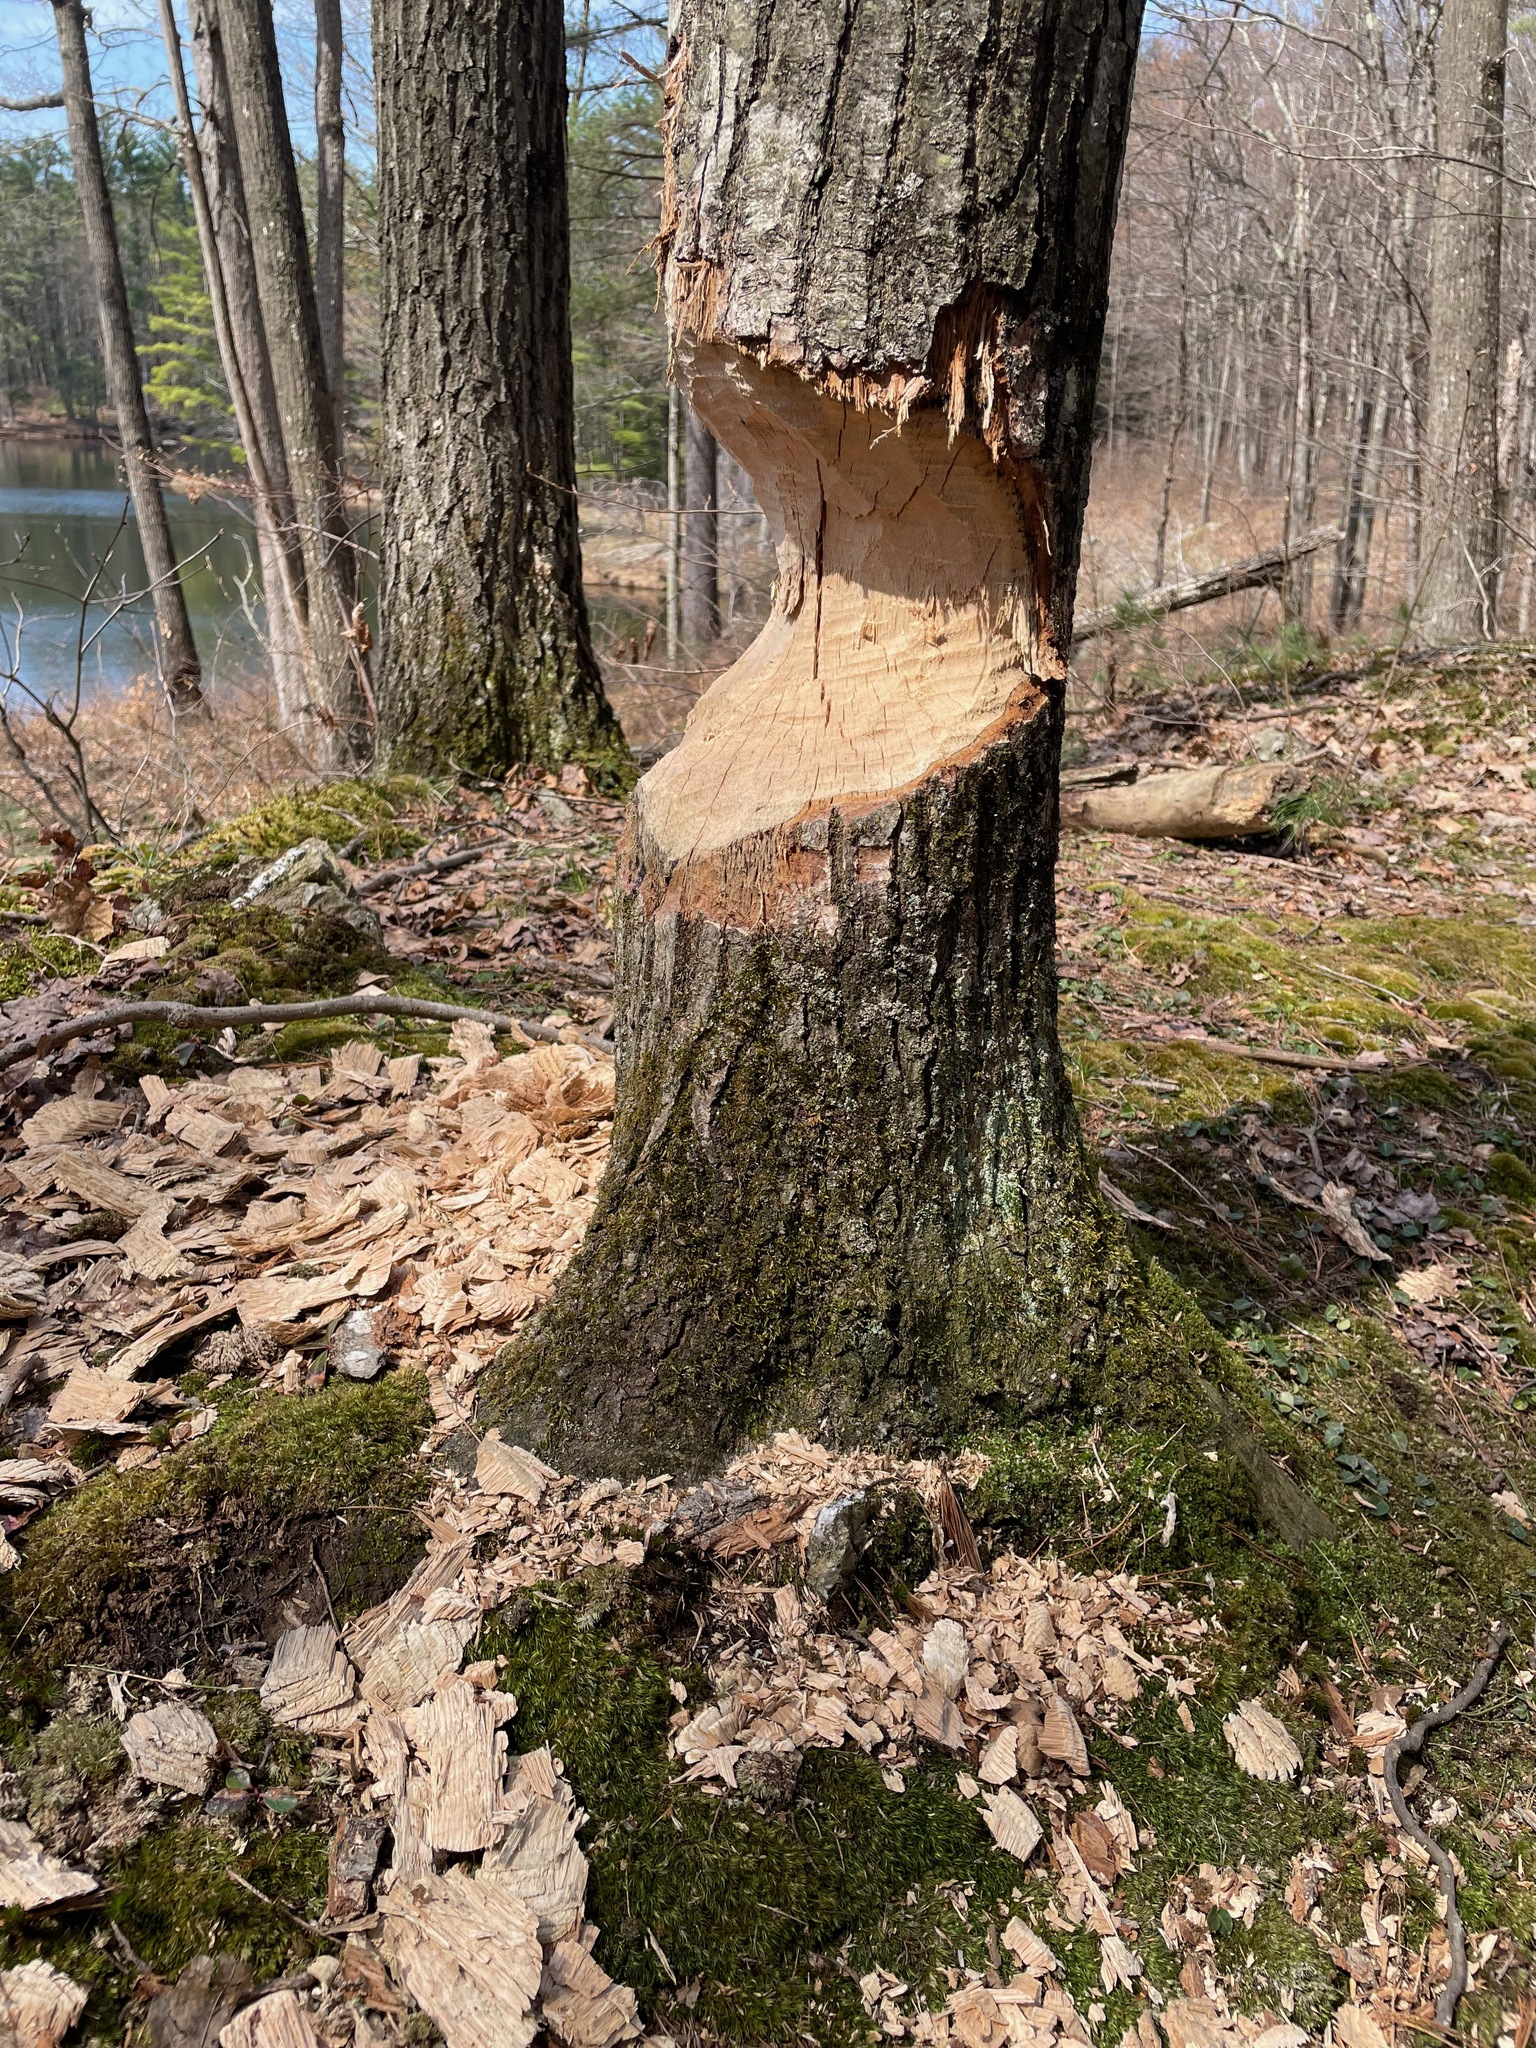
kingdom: Animalia
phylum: Chordata
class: Mammalia
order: Rodentia
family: Castoridae
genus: Castor
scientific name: Castor canadensis
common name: American beaver
